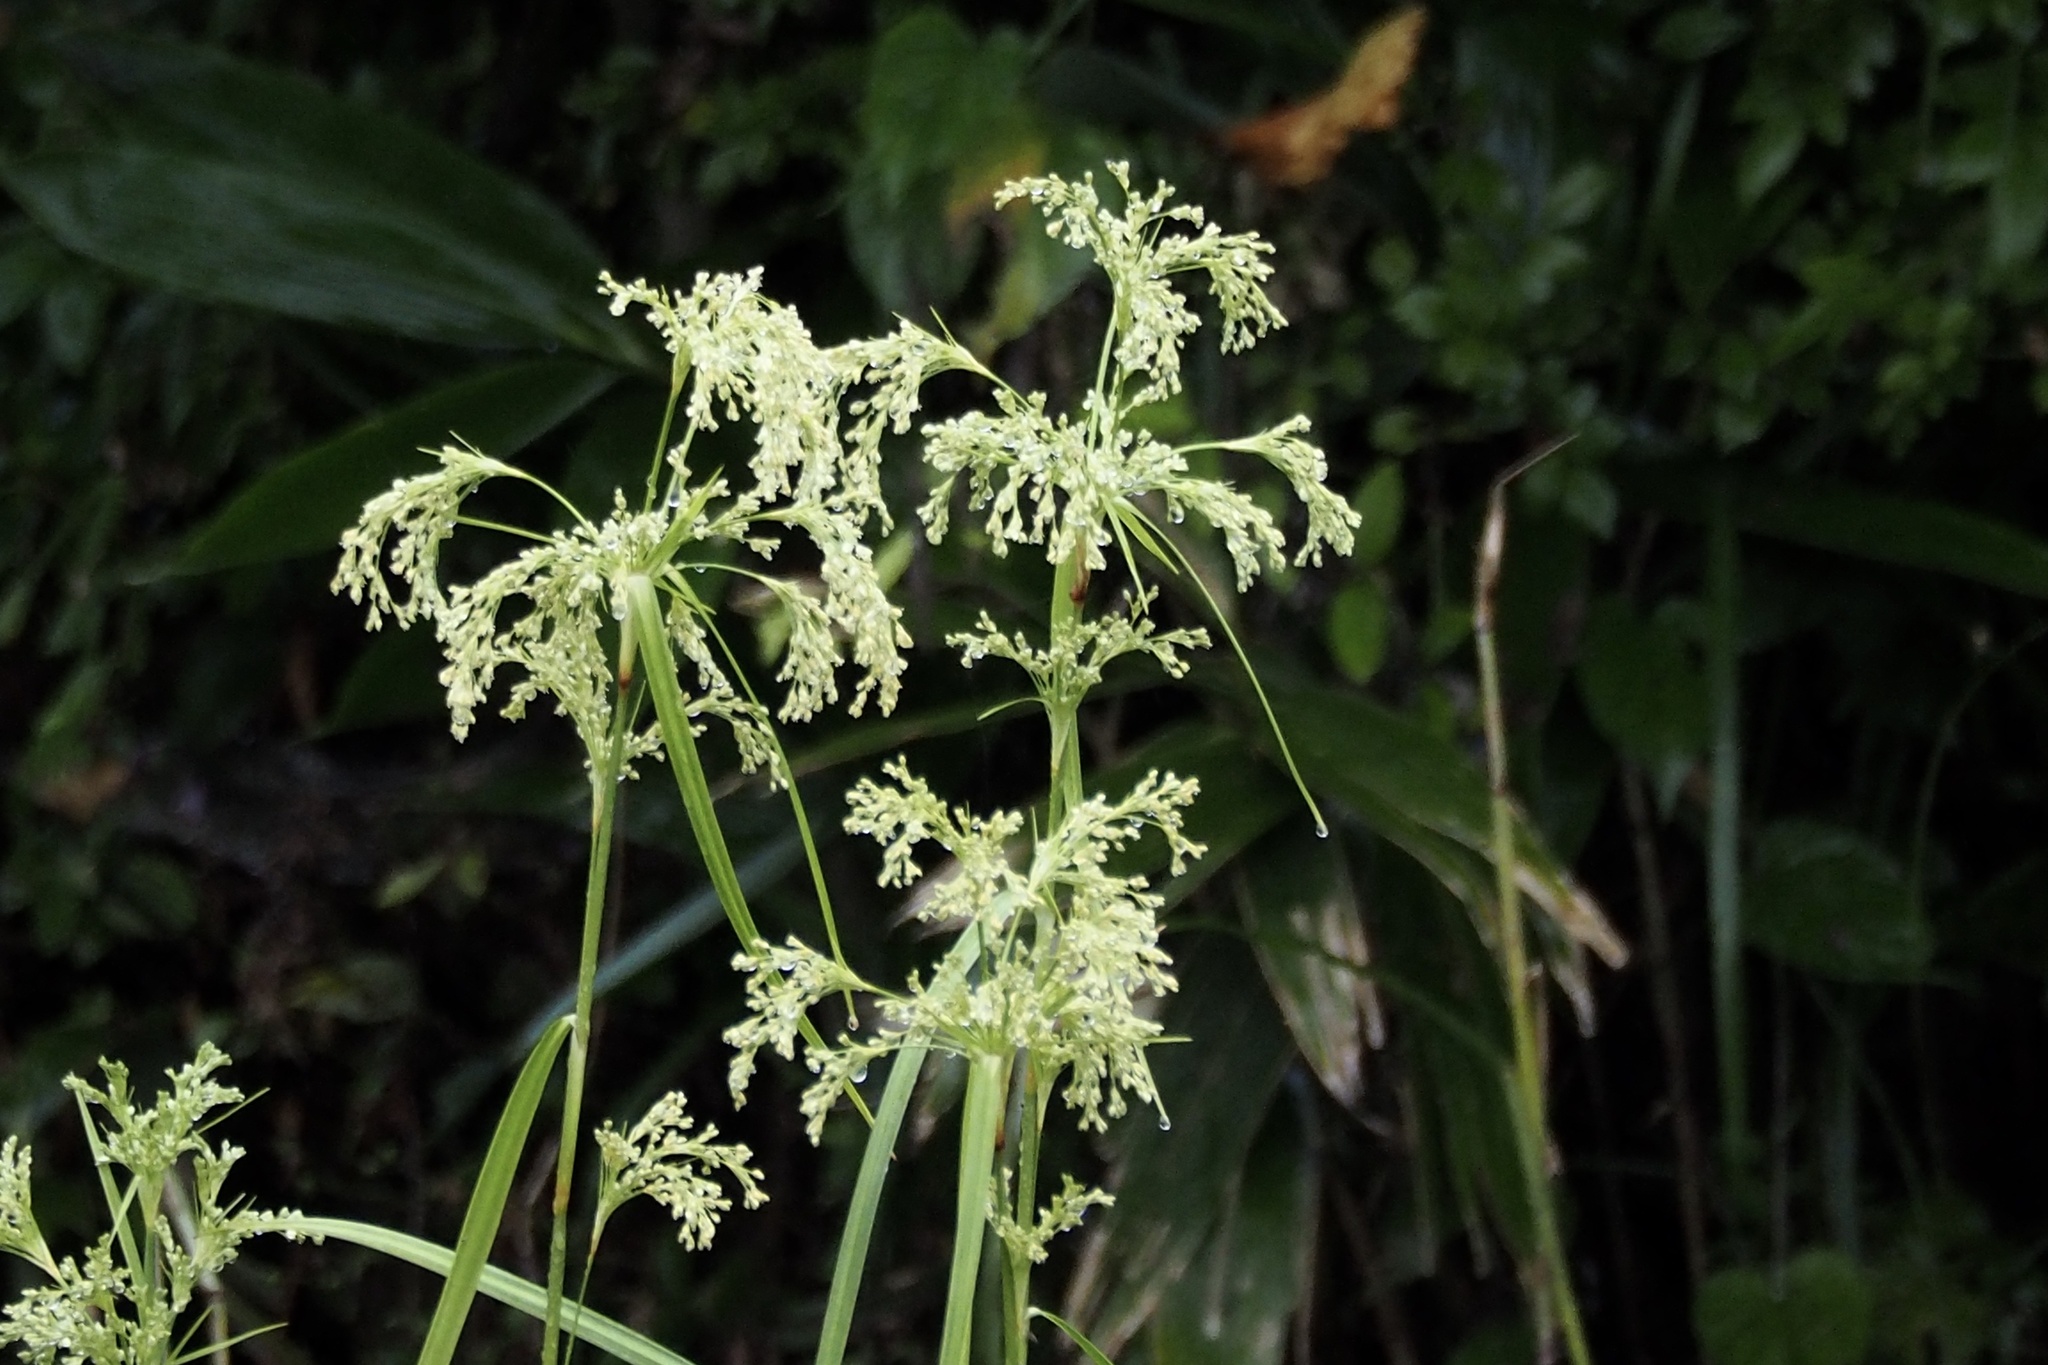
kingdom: Plantae
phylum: Tracheophyta
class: Liliopsida
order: Poales
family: Cyperaceae
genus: Scirpus
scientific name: Scirpus wichurae
